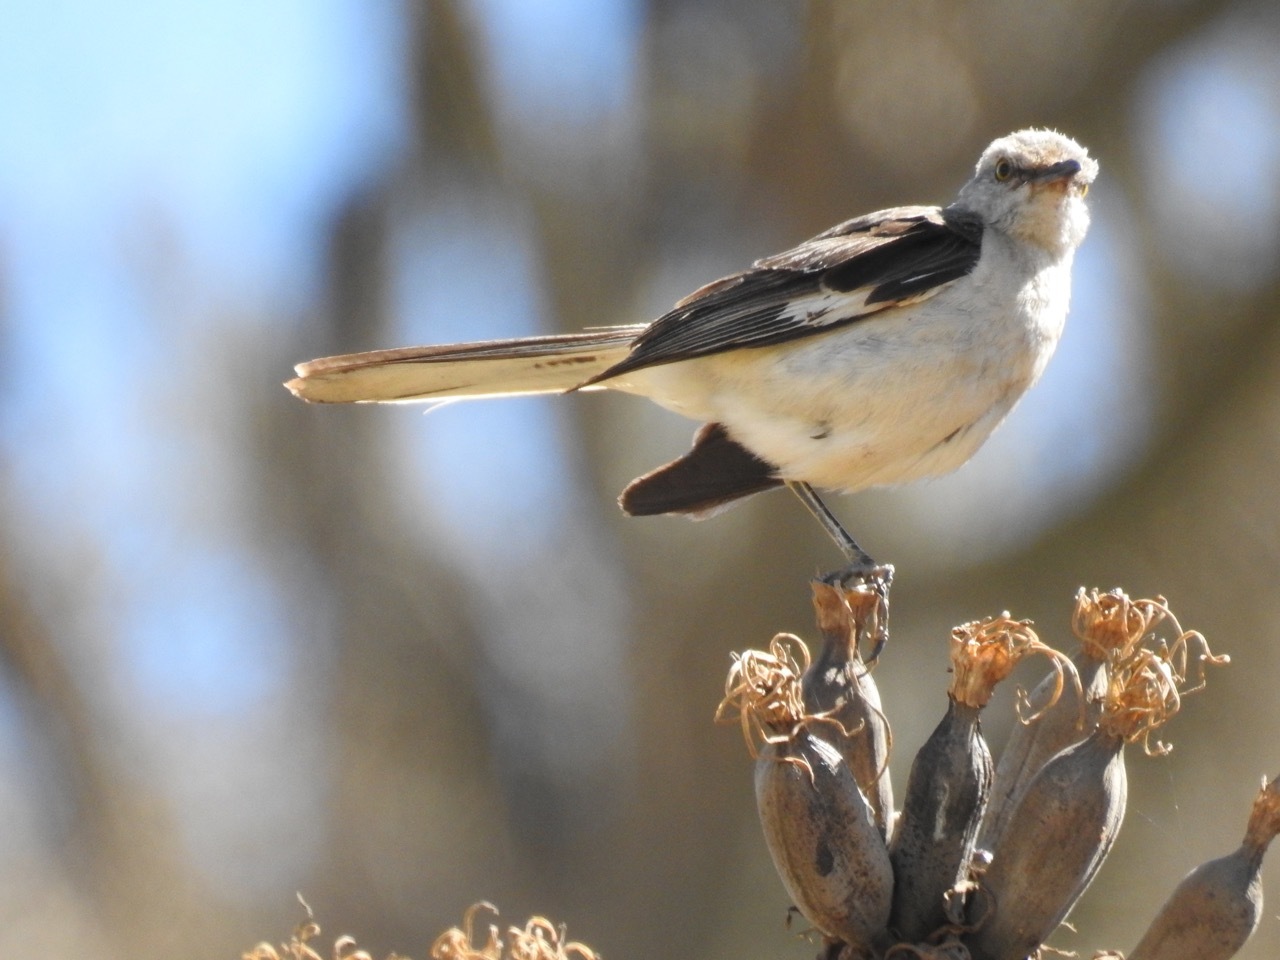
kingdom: Animalia
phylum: Chordata
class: Aves
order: Passeriformes
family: Mimidae
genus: Mimus
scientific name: Mimus polyglottos
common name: Northern mockingbird
